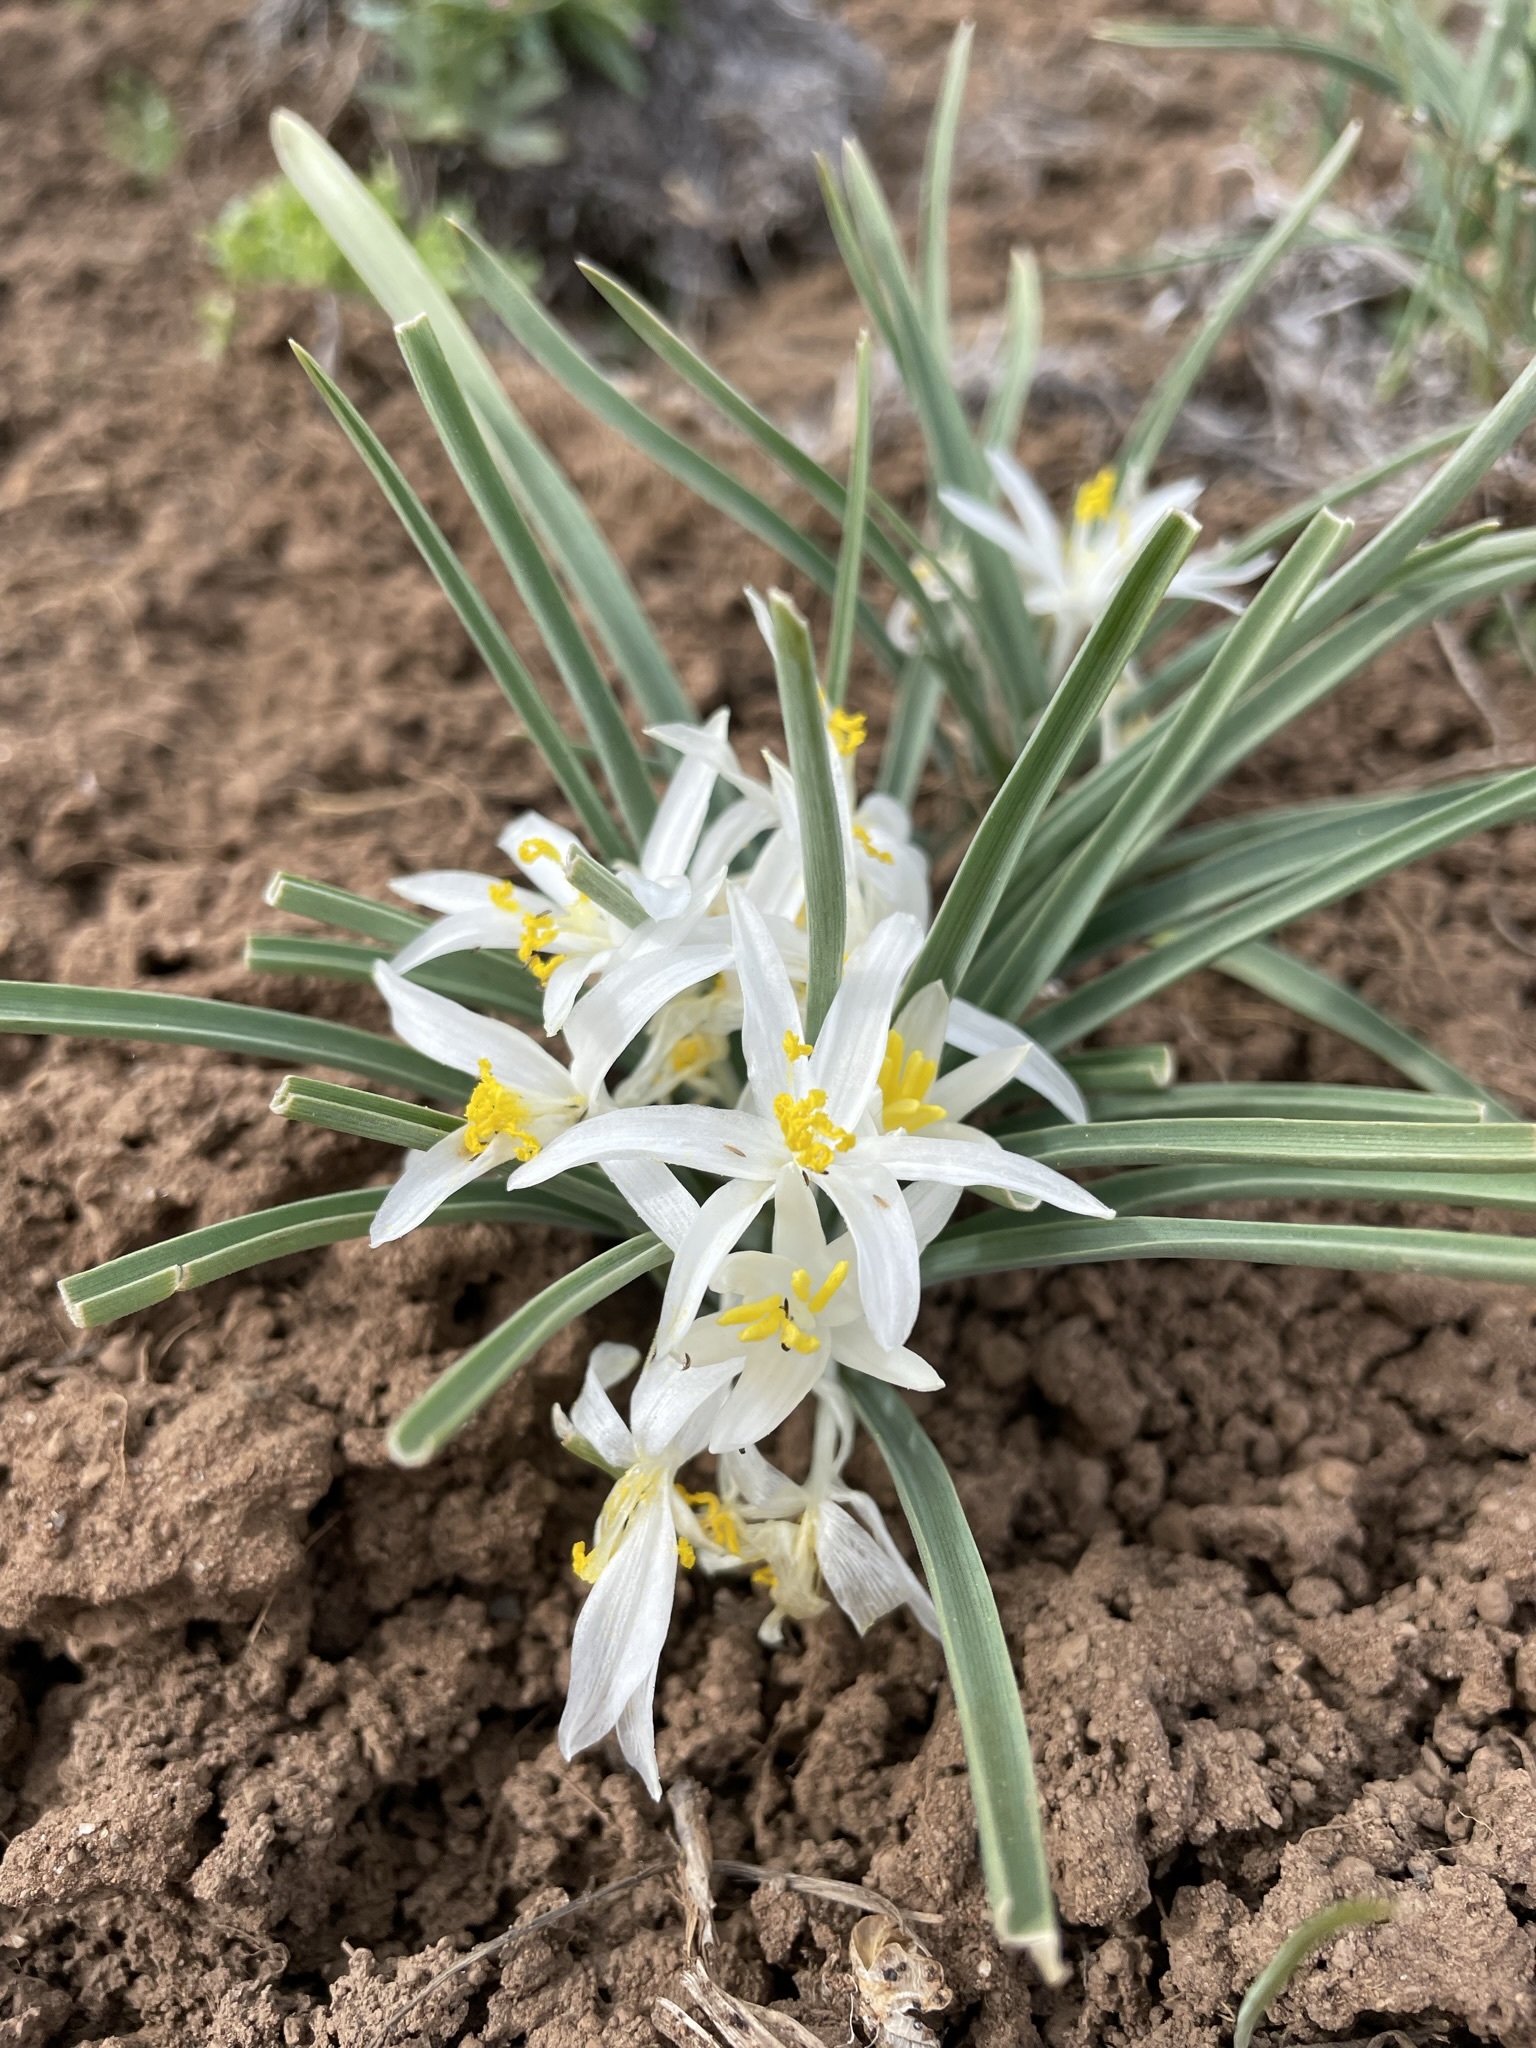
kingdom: Plantae
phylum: Tracheophyta
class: Liliopsida
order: Asparagales
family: Asparagaceae
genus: Leucocrinum
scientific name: Leucocrinum montanum
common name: Mountain-lily
